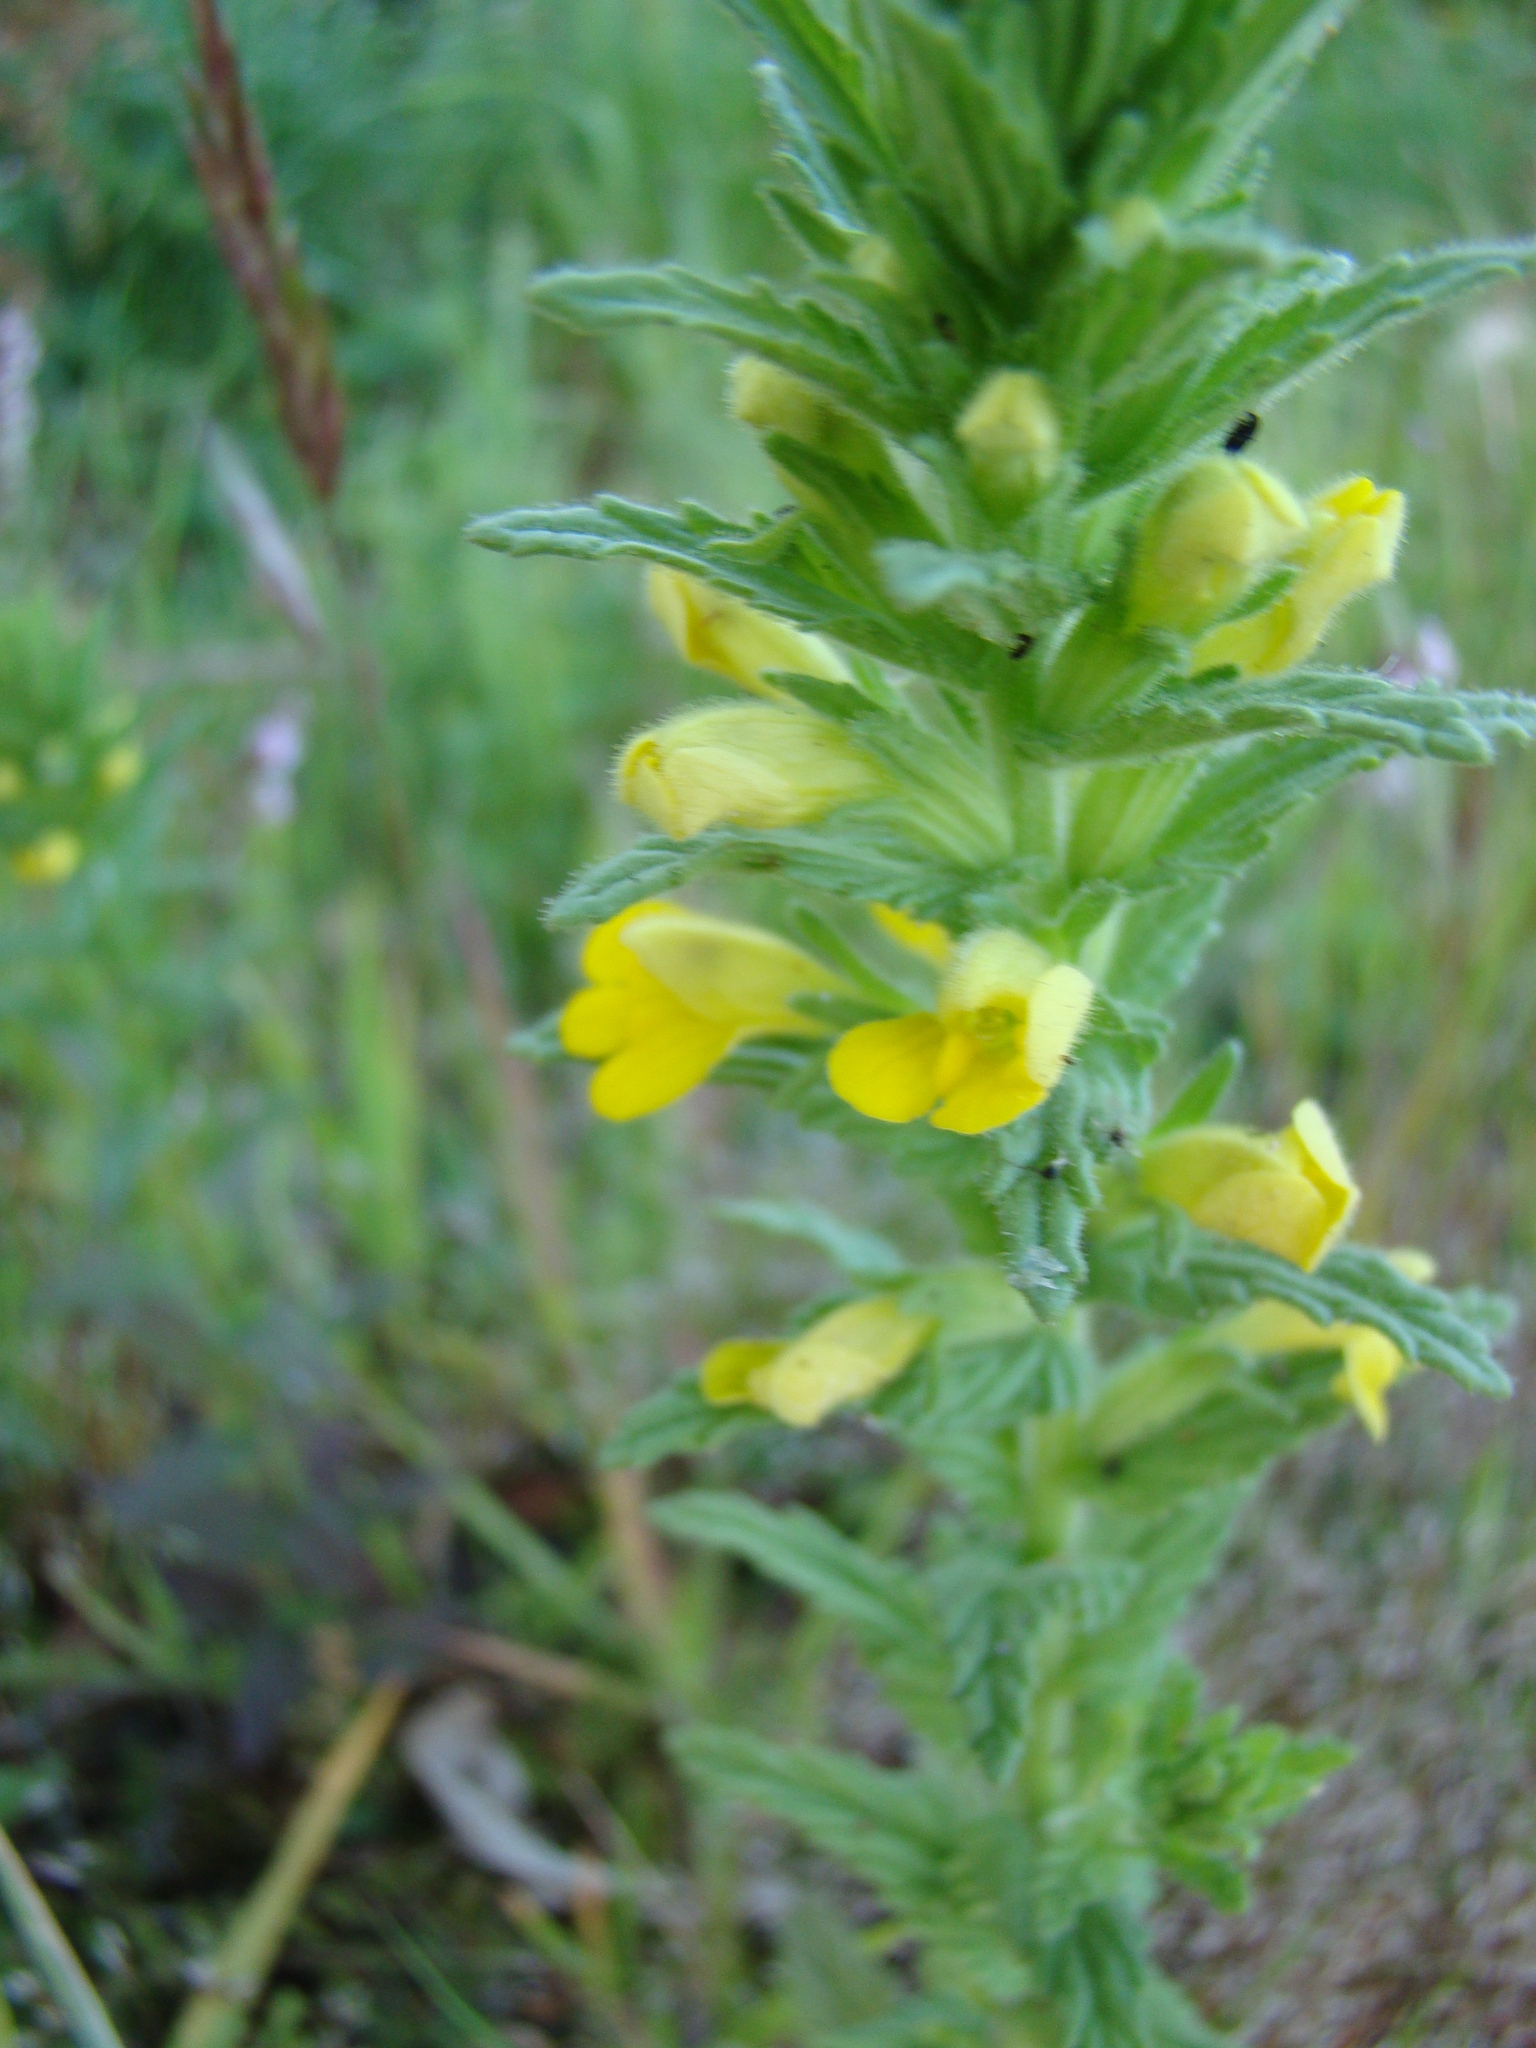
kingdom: Plantae
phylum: Tracheophyta
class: Magnoliopsida
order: Lamiales
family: Orobanchaceae
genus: Bellardia
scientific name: Bellardia viscosa
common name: Sticky parentucellia
